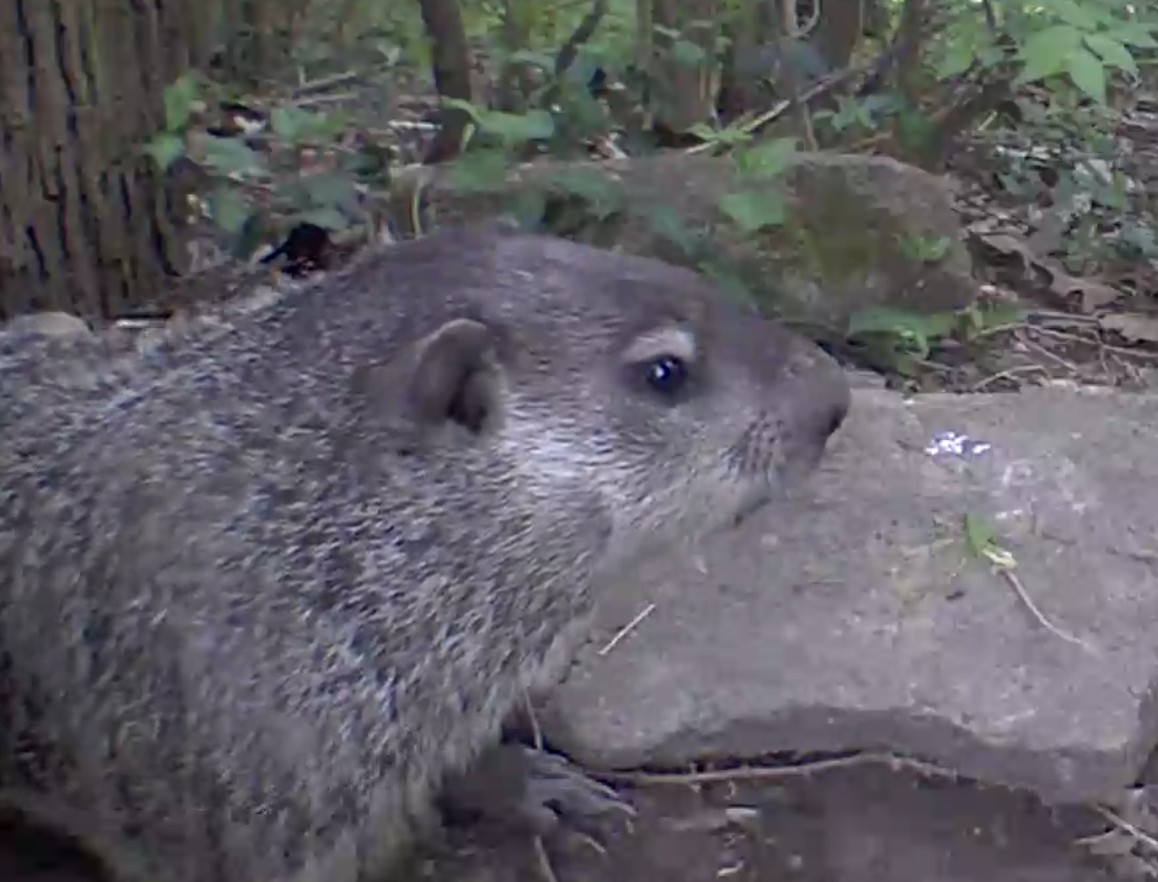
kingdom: Animalia
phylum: Chordata
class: Mammalia
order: Rodentia
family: Sciuridae
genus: Marmota
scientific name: Marmota monax
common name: Groundhog
